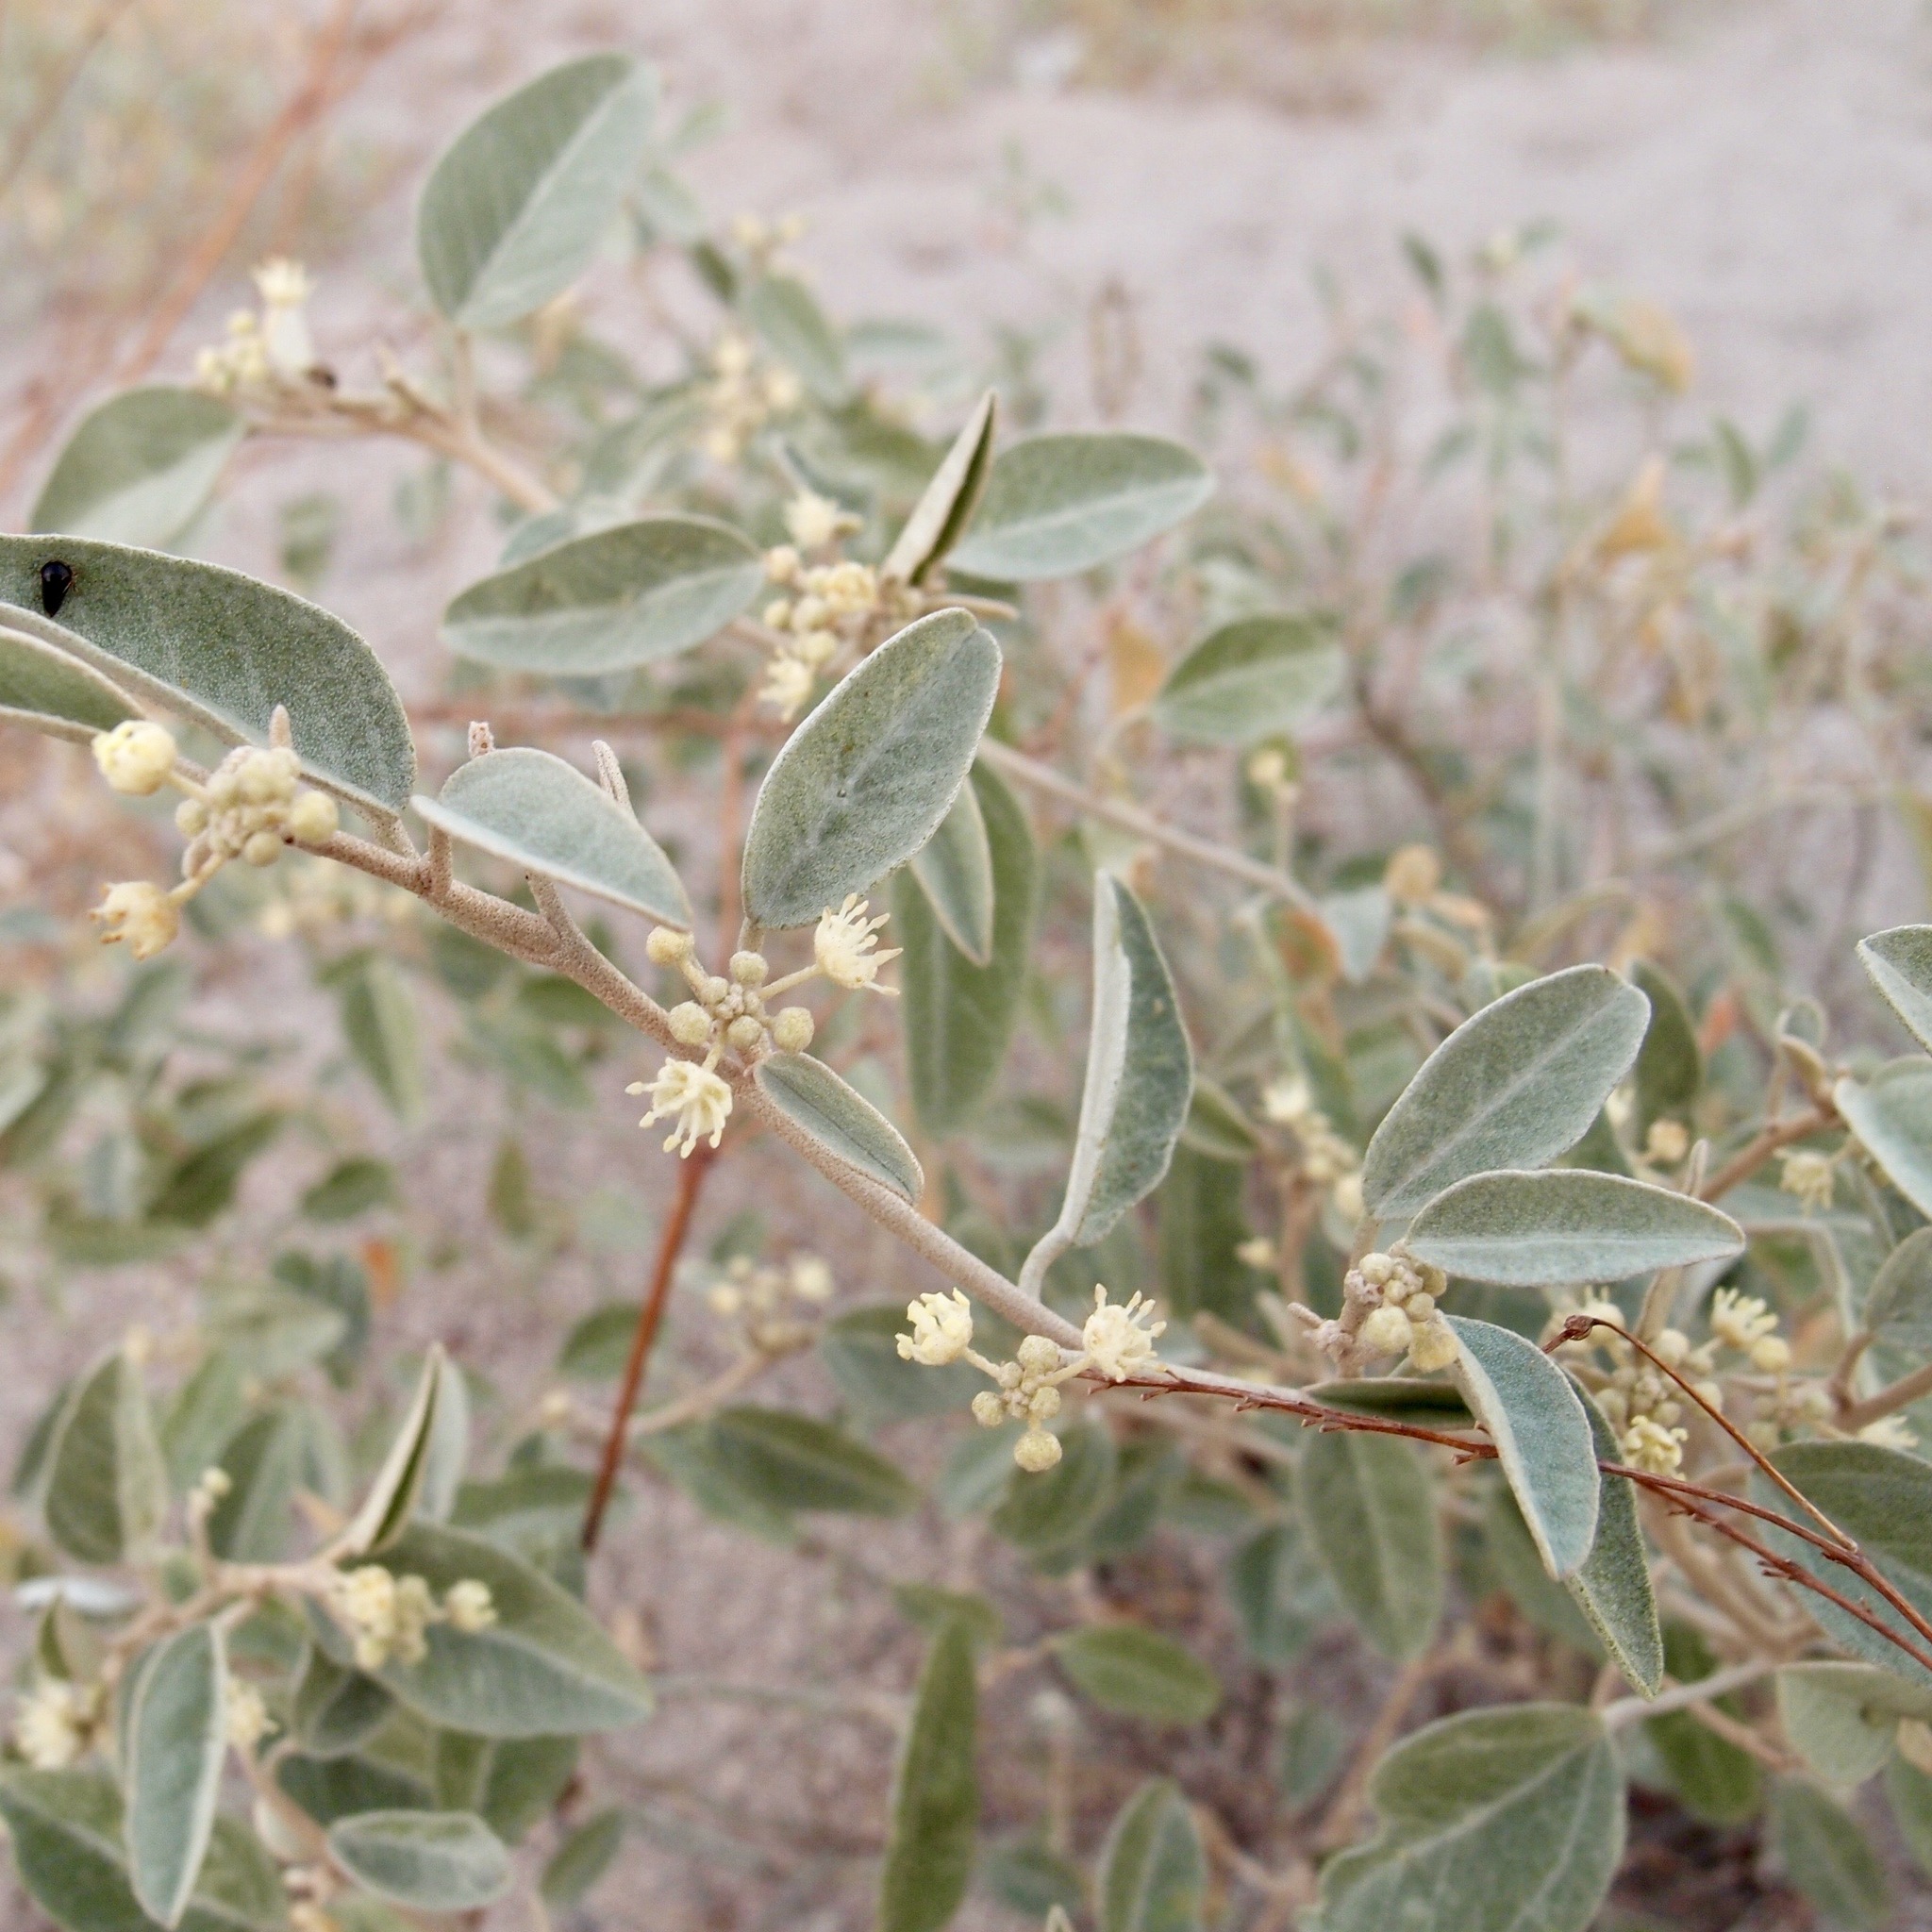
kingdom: Plantae
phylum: Tracheophyta
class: Magnoliopsida
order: Malpighiales
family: Euphorbiaceae
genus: Croton
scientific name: Croton californicus
